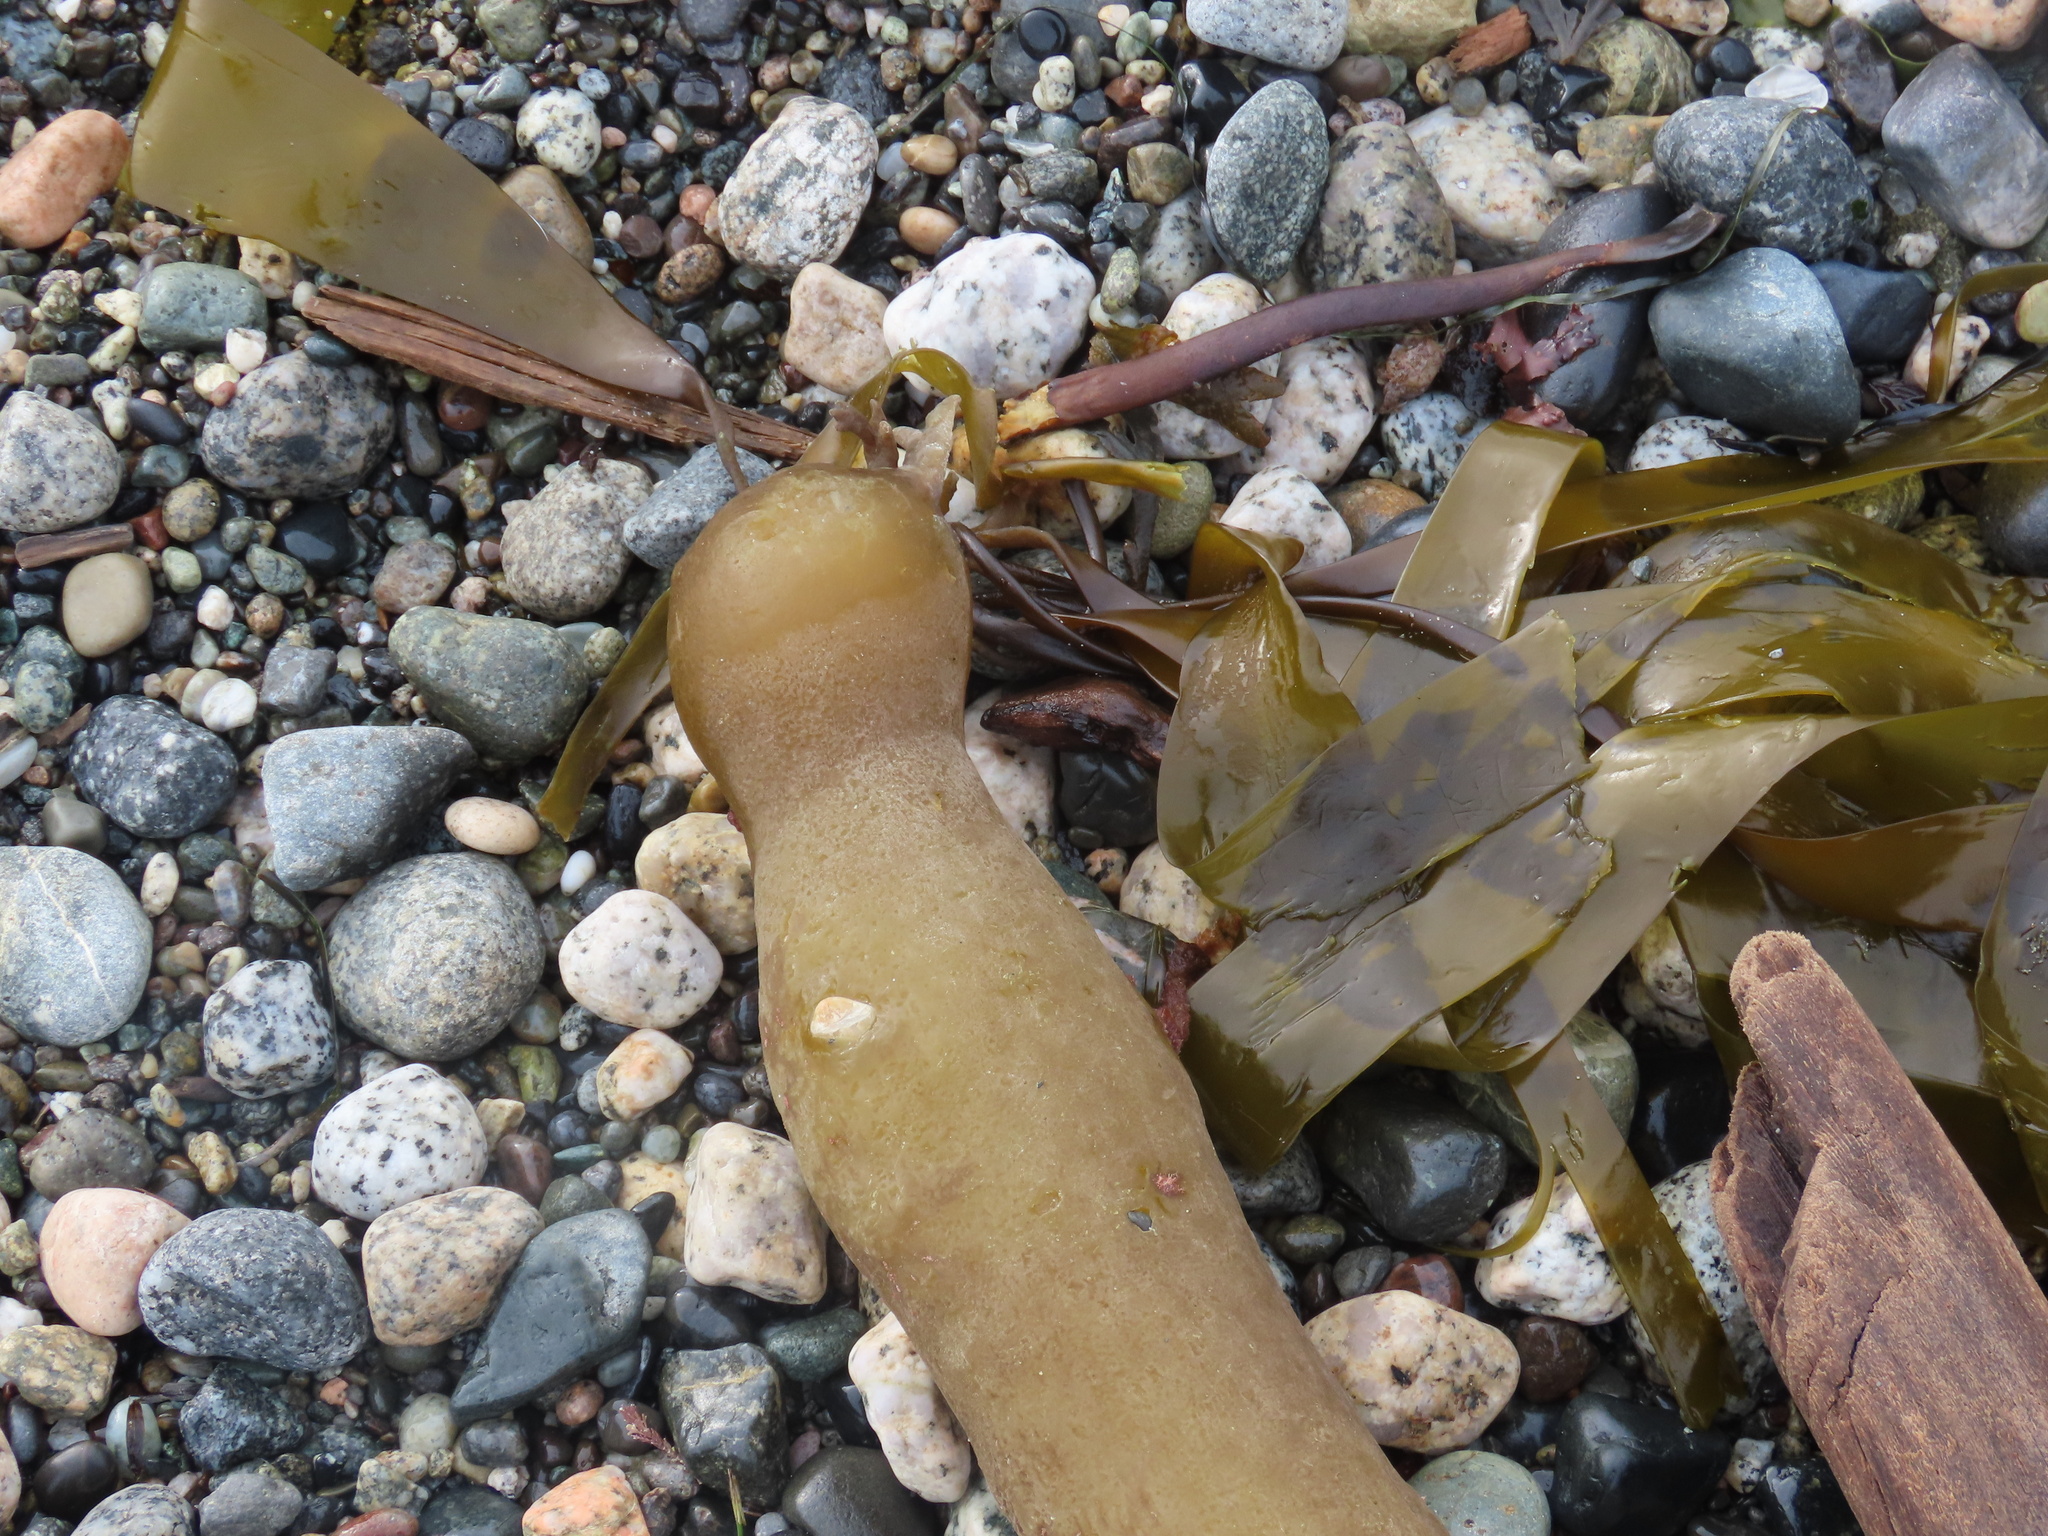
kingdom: Chromista
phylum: Ochrophyta
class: Phaeophyceae
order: Laminariales
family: Laminariaceae
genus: Nereocystis
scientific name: Nereocystis luetkeana
